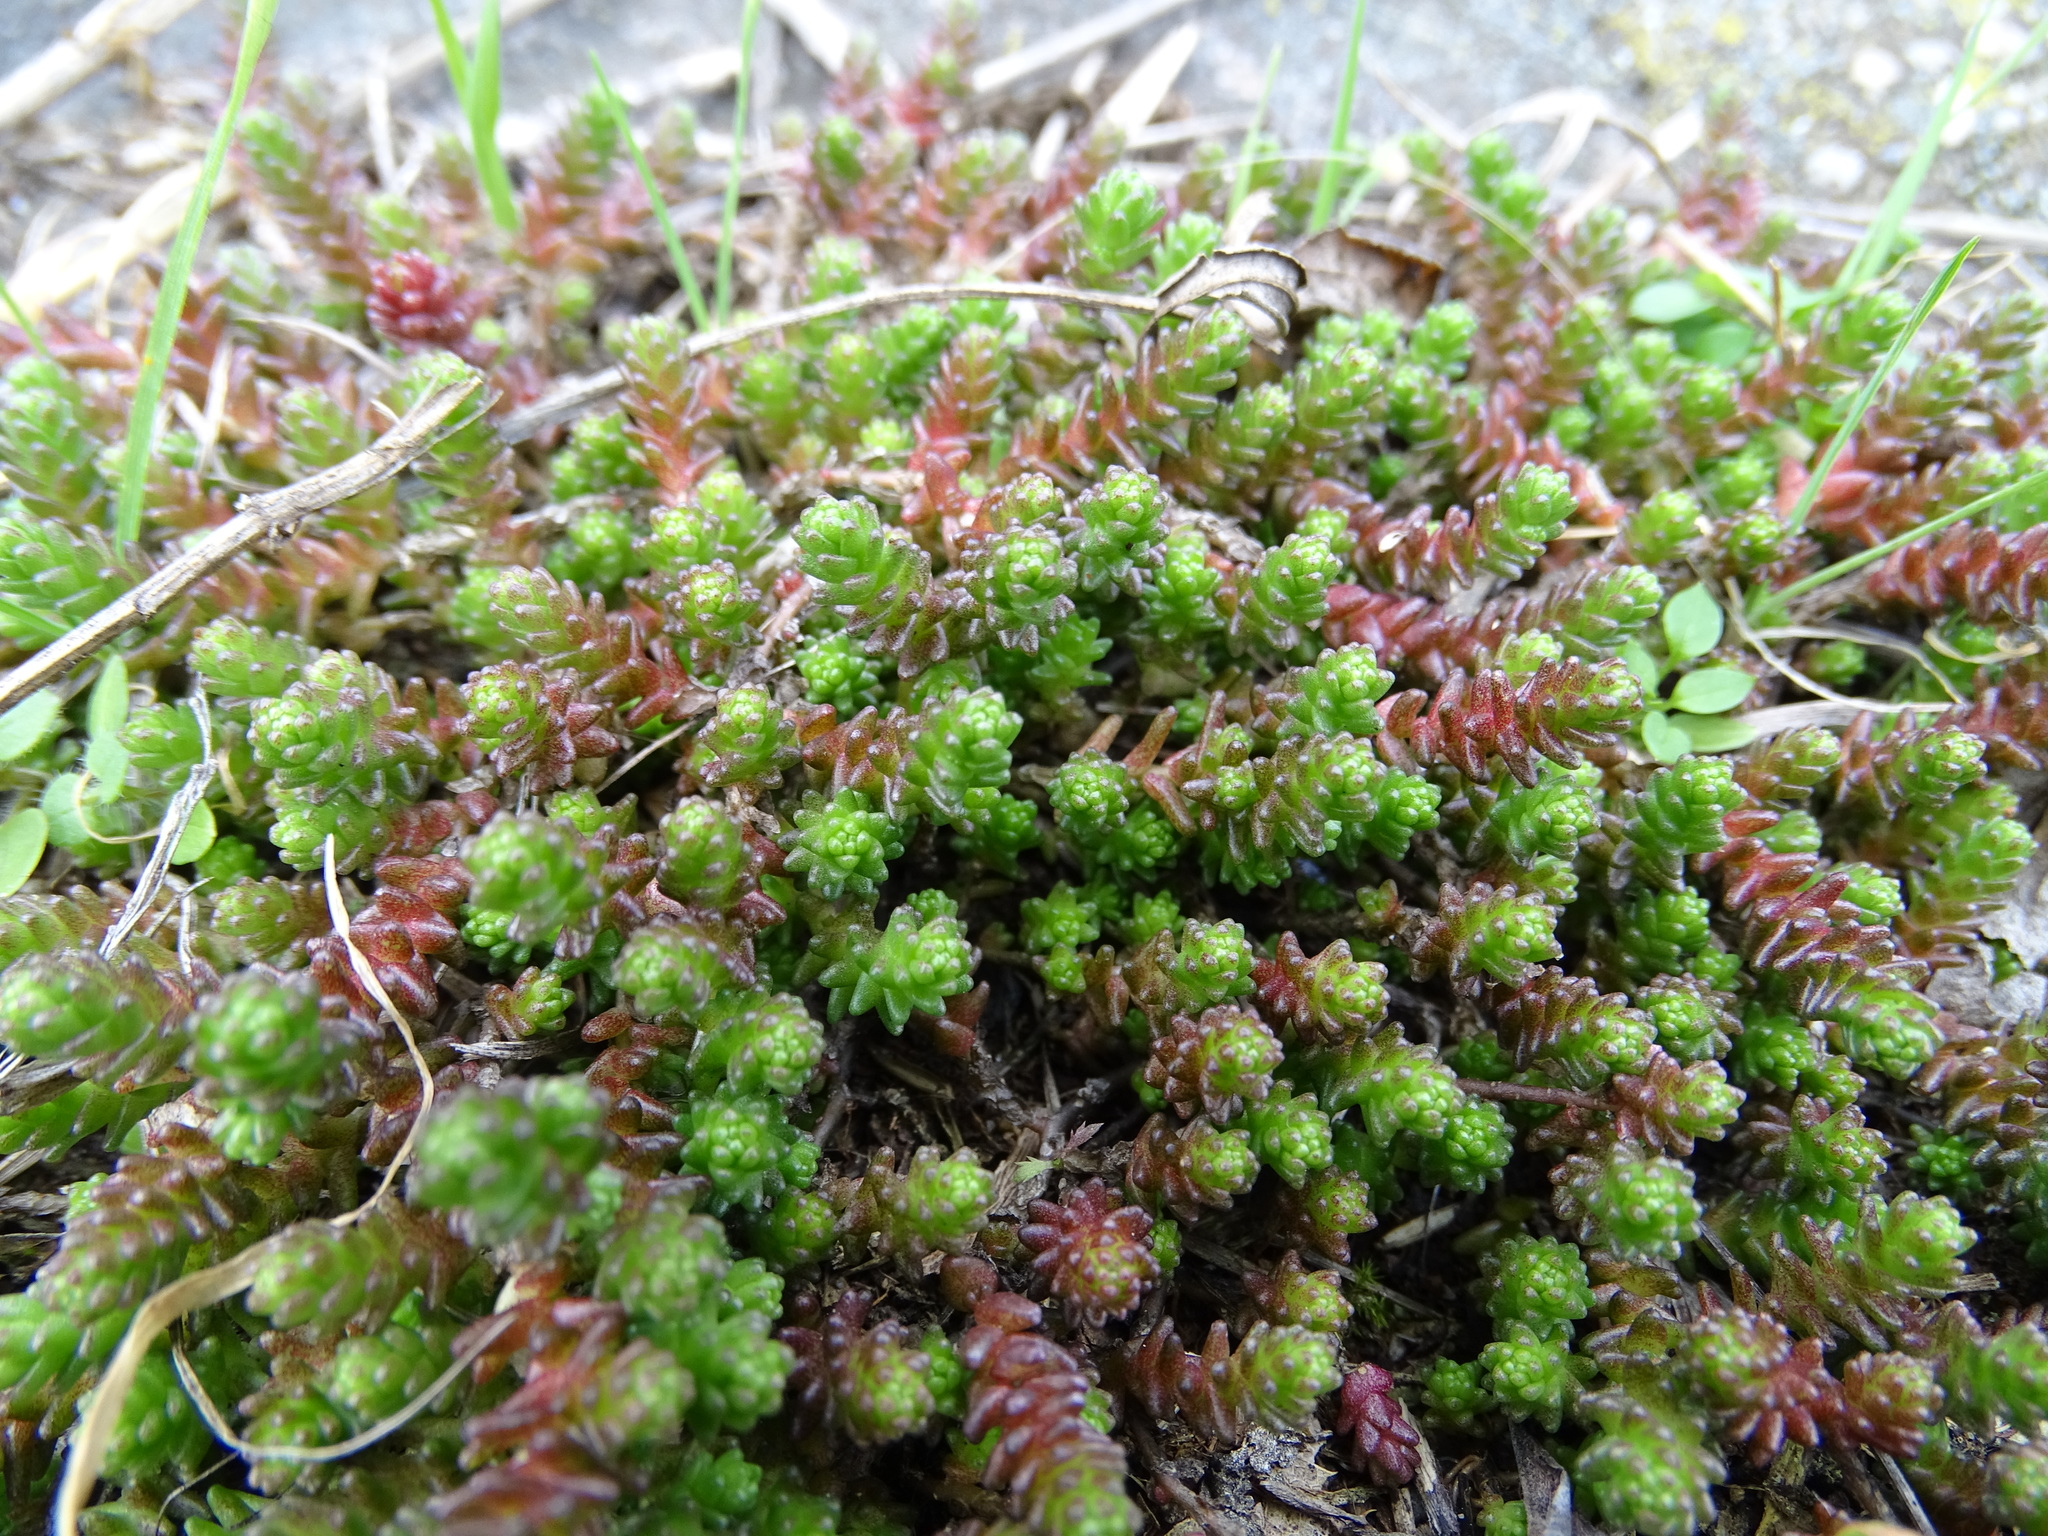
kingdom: Plantae
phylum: Tracheophyta
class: Magnoliopsida
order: Saxifragales
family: Crassulaceae
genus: Sedum
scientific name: Sedum acre
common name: Biting stonecrop
